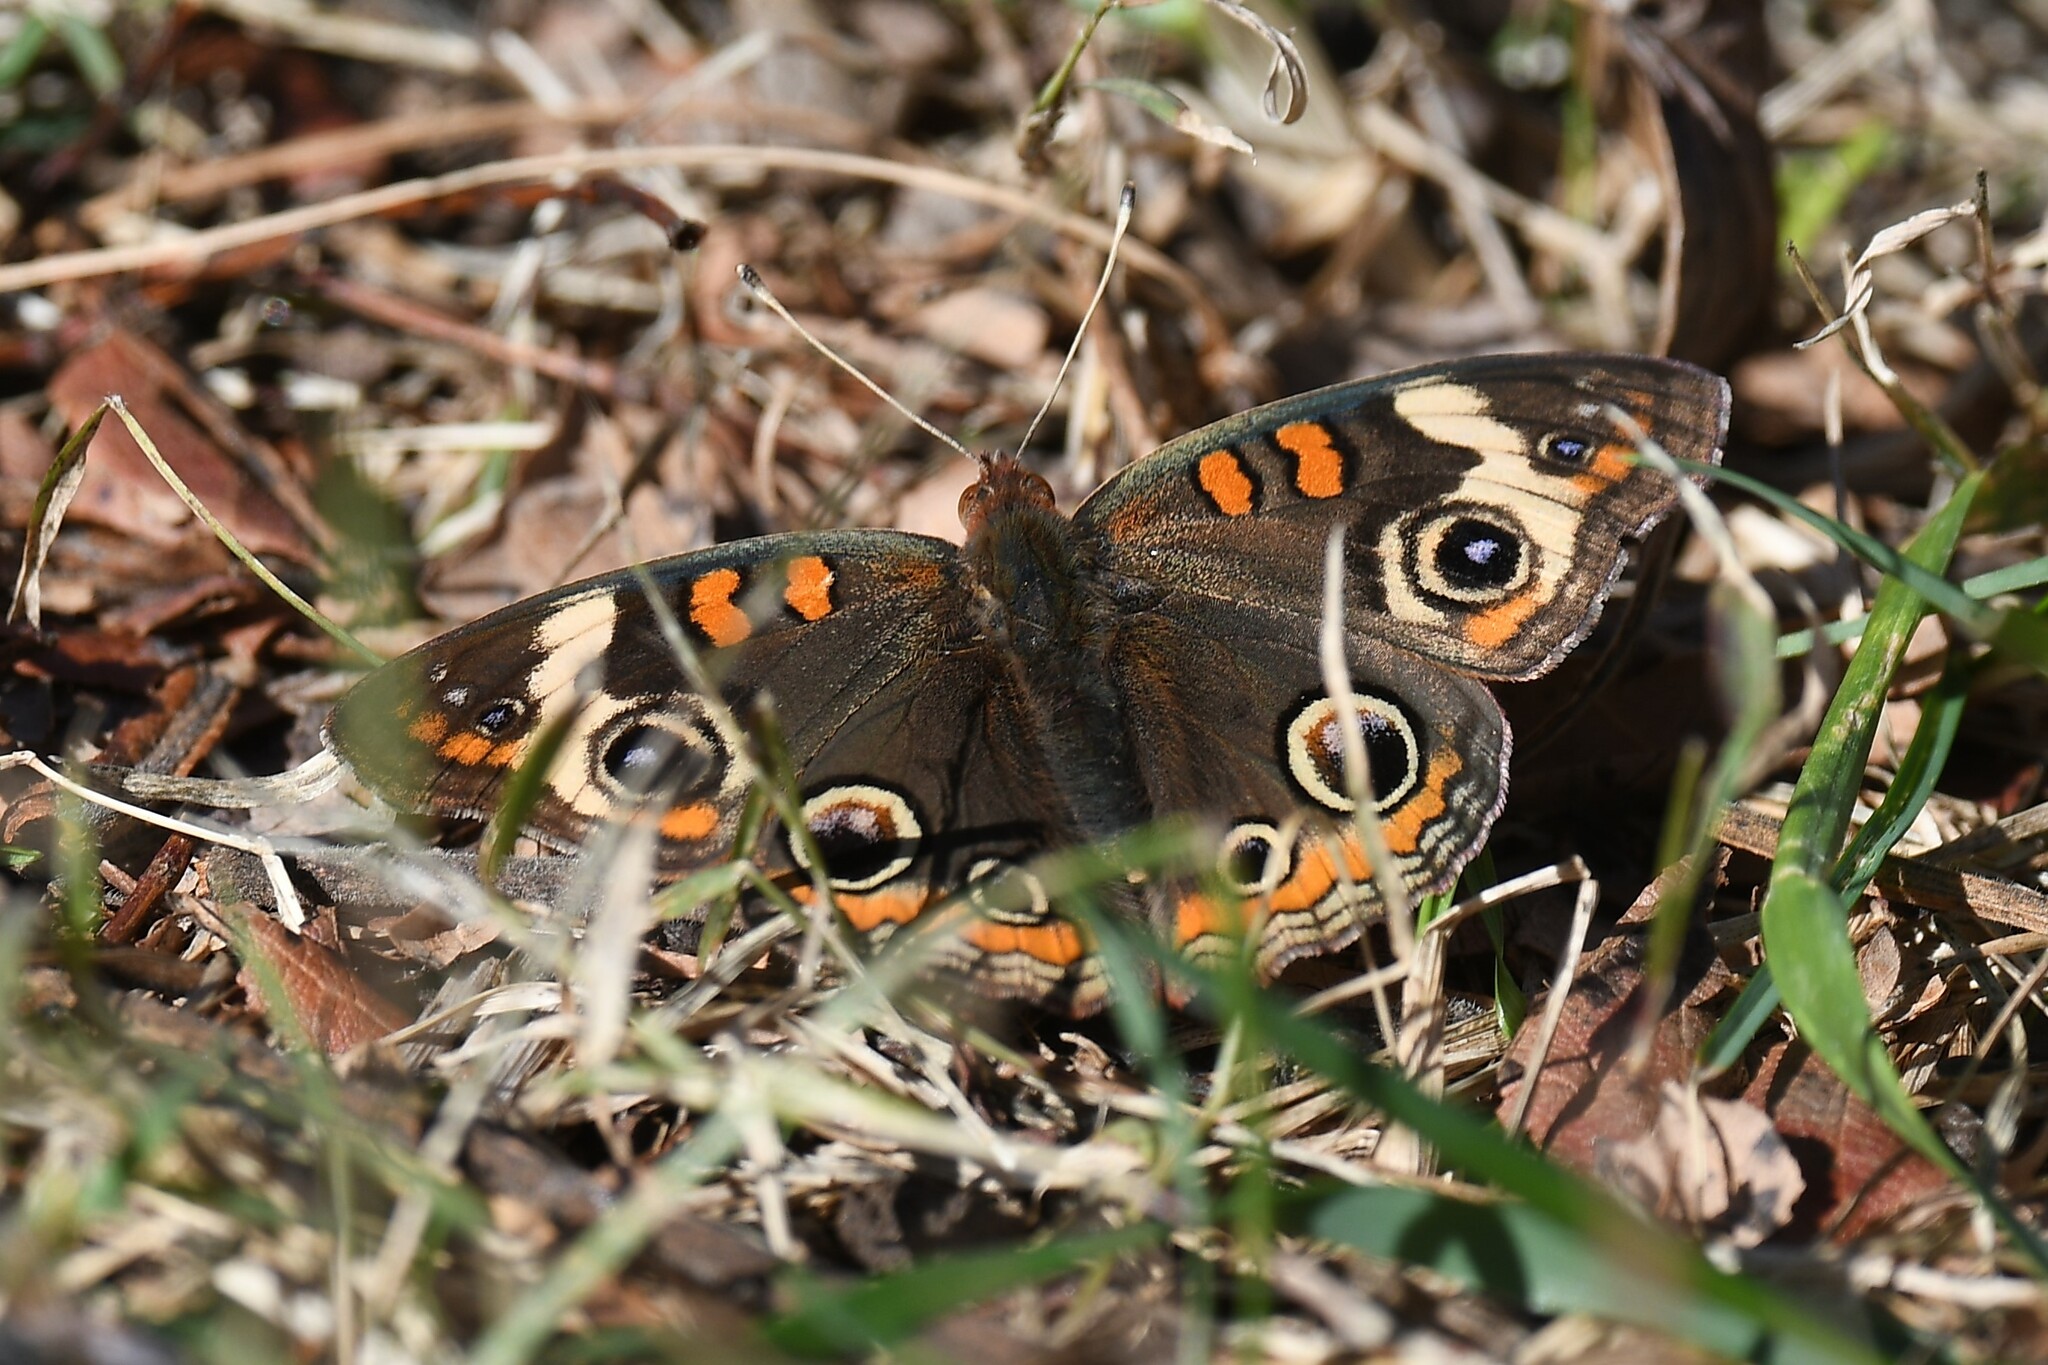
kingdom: Animalia
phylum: Arthropoda
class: Insecta
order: Lepidoptera
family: Nymphalidae
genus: Junonia
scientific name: Junonia coenia
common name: Common buckeye
